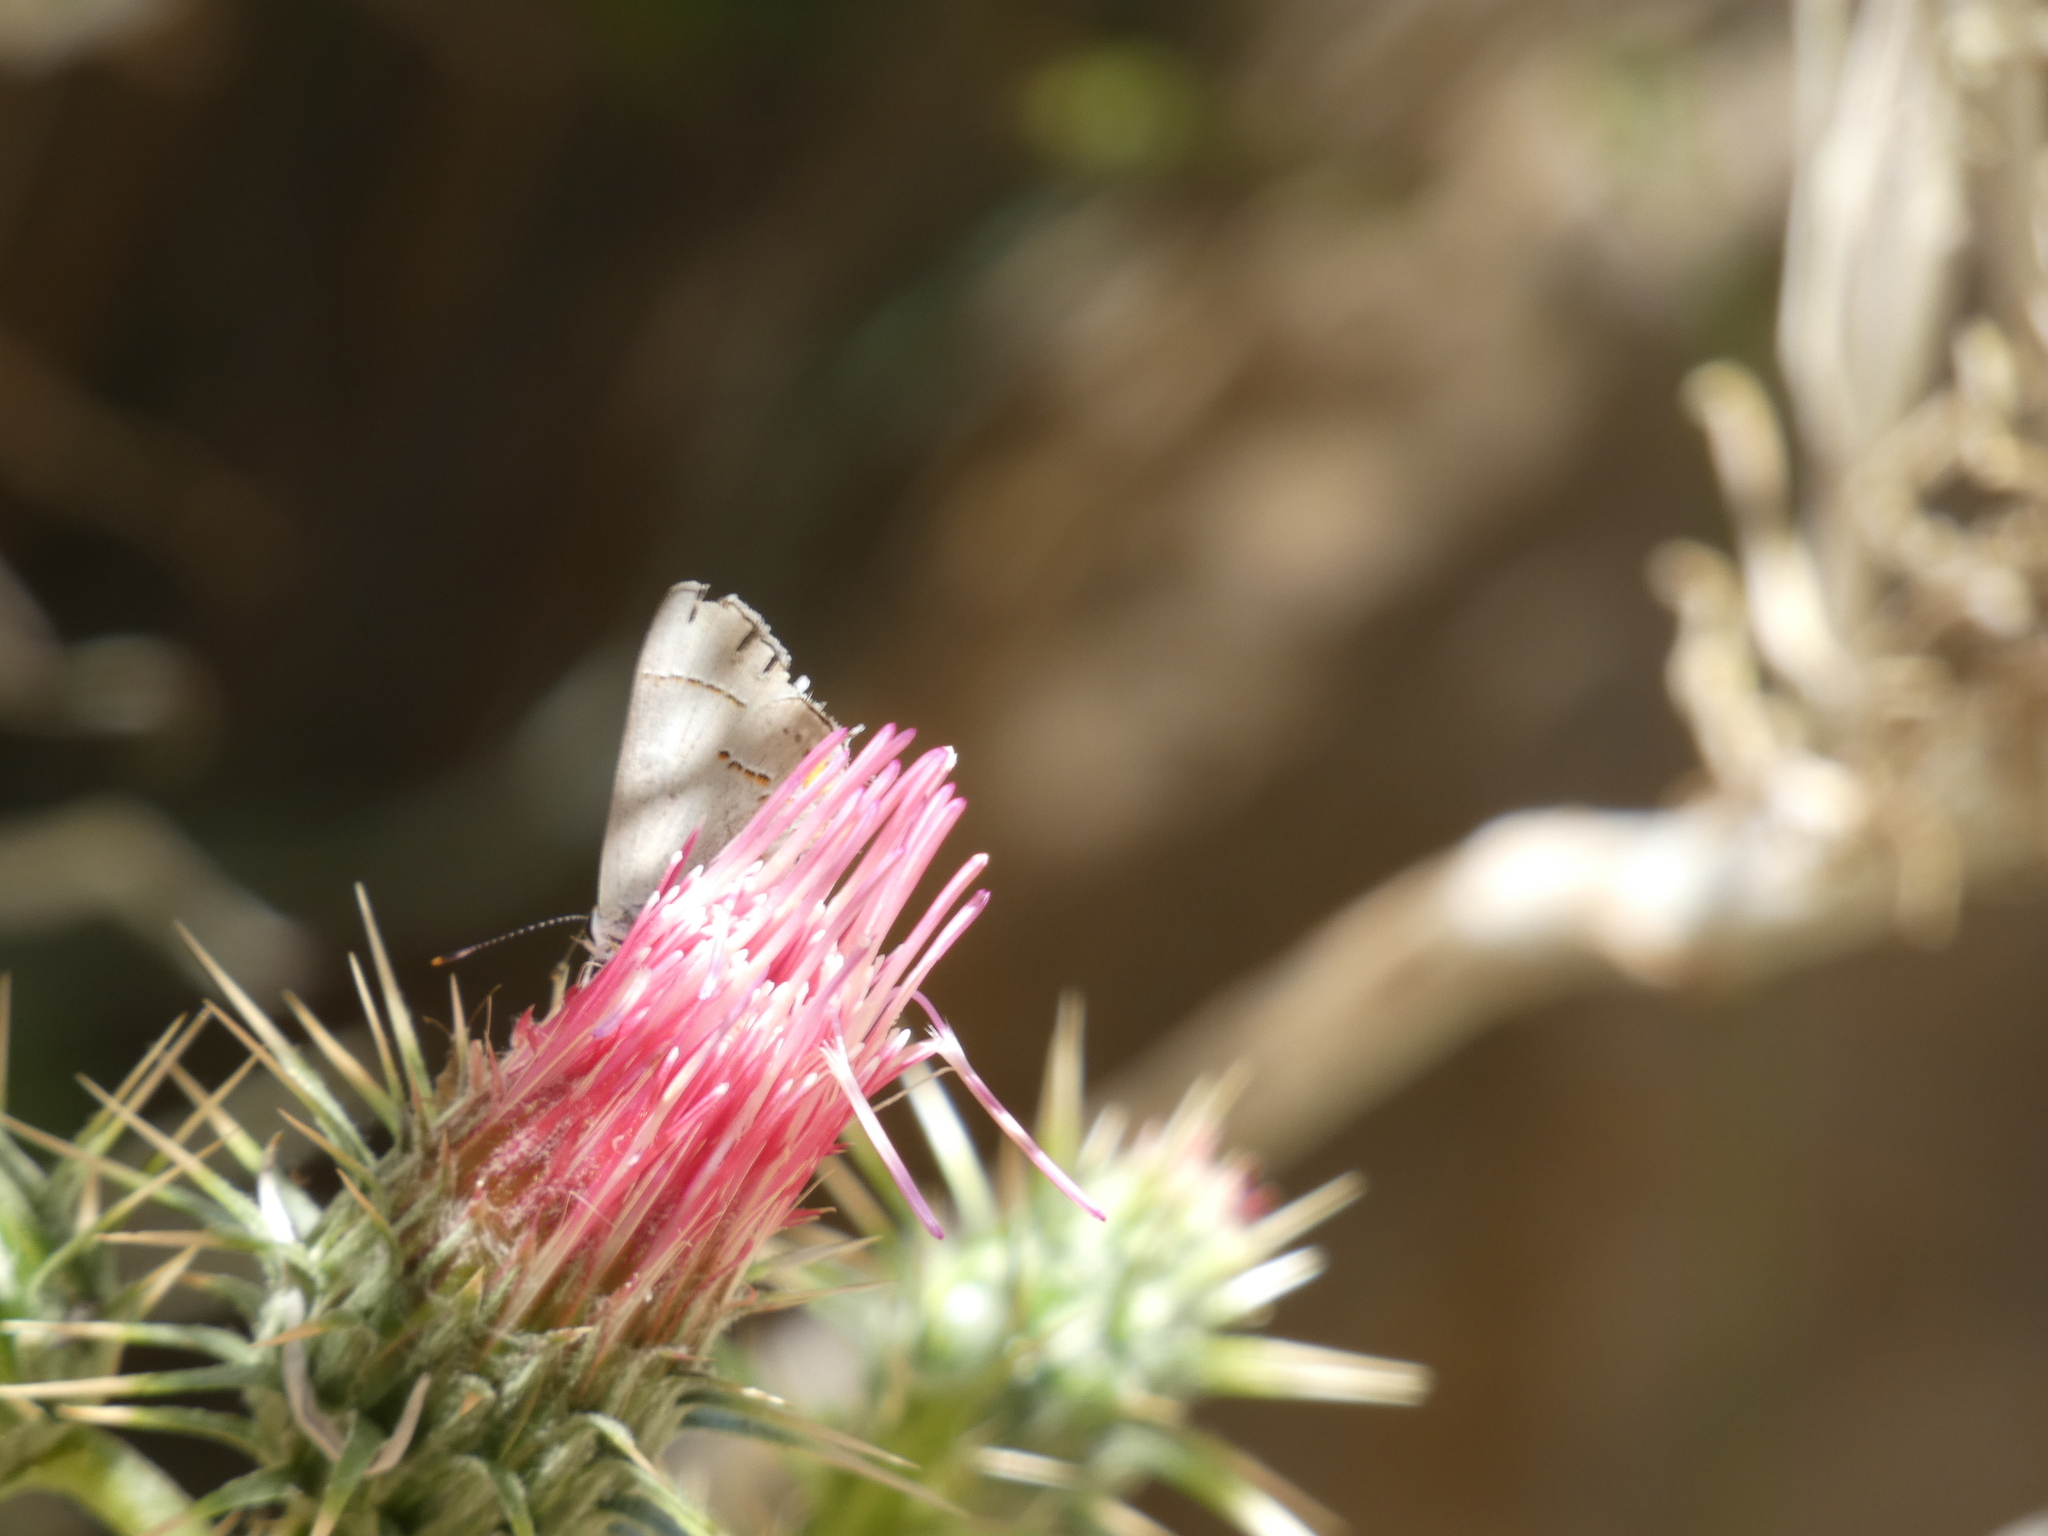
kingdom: Animalia
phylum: Arthropoda
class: Insecta
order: Lepidoptera
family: Lycaenidae
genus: Strymon
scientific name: Strymon melinus
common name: Gray hairstreak
